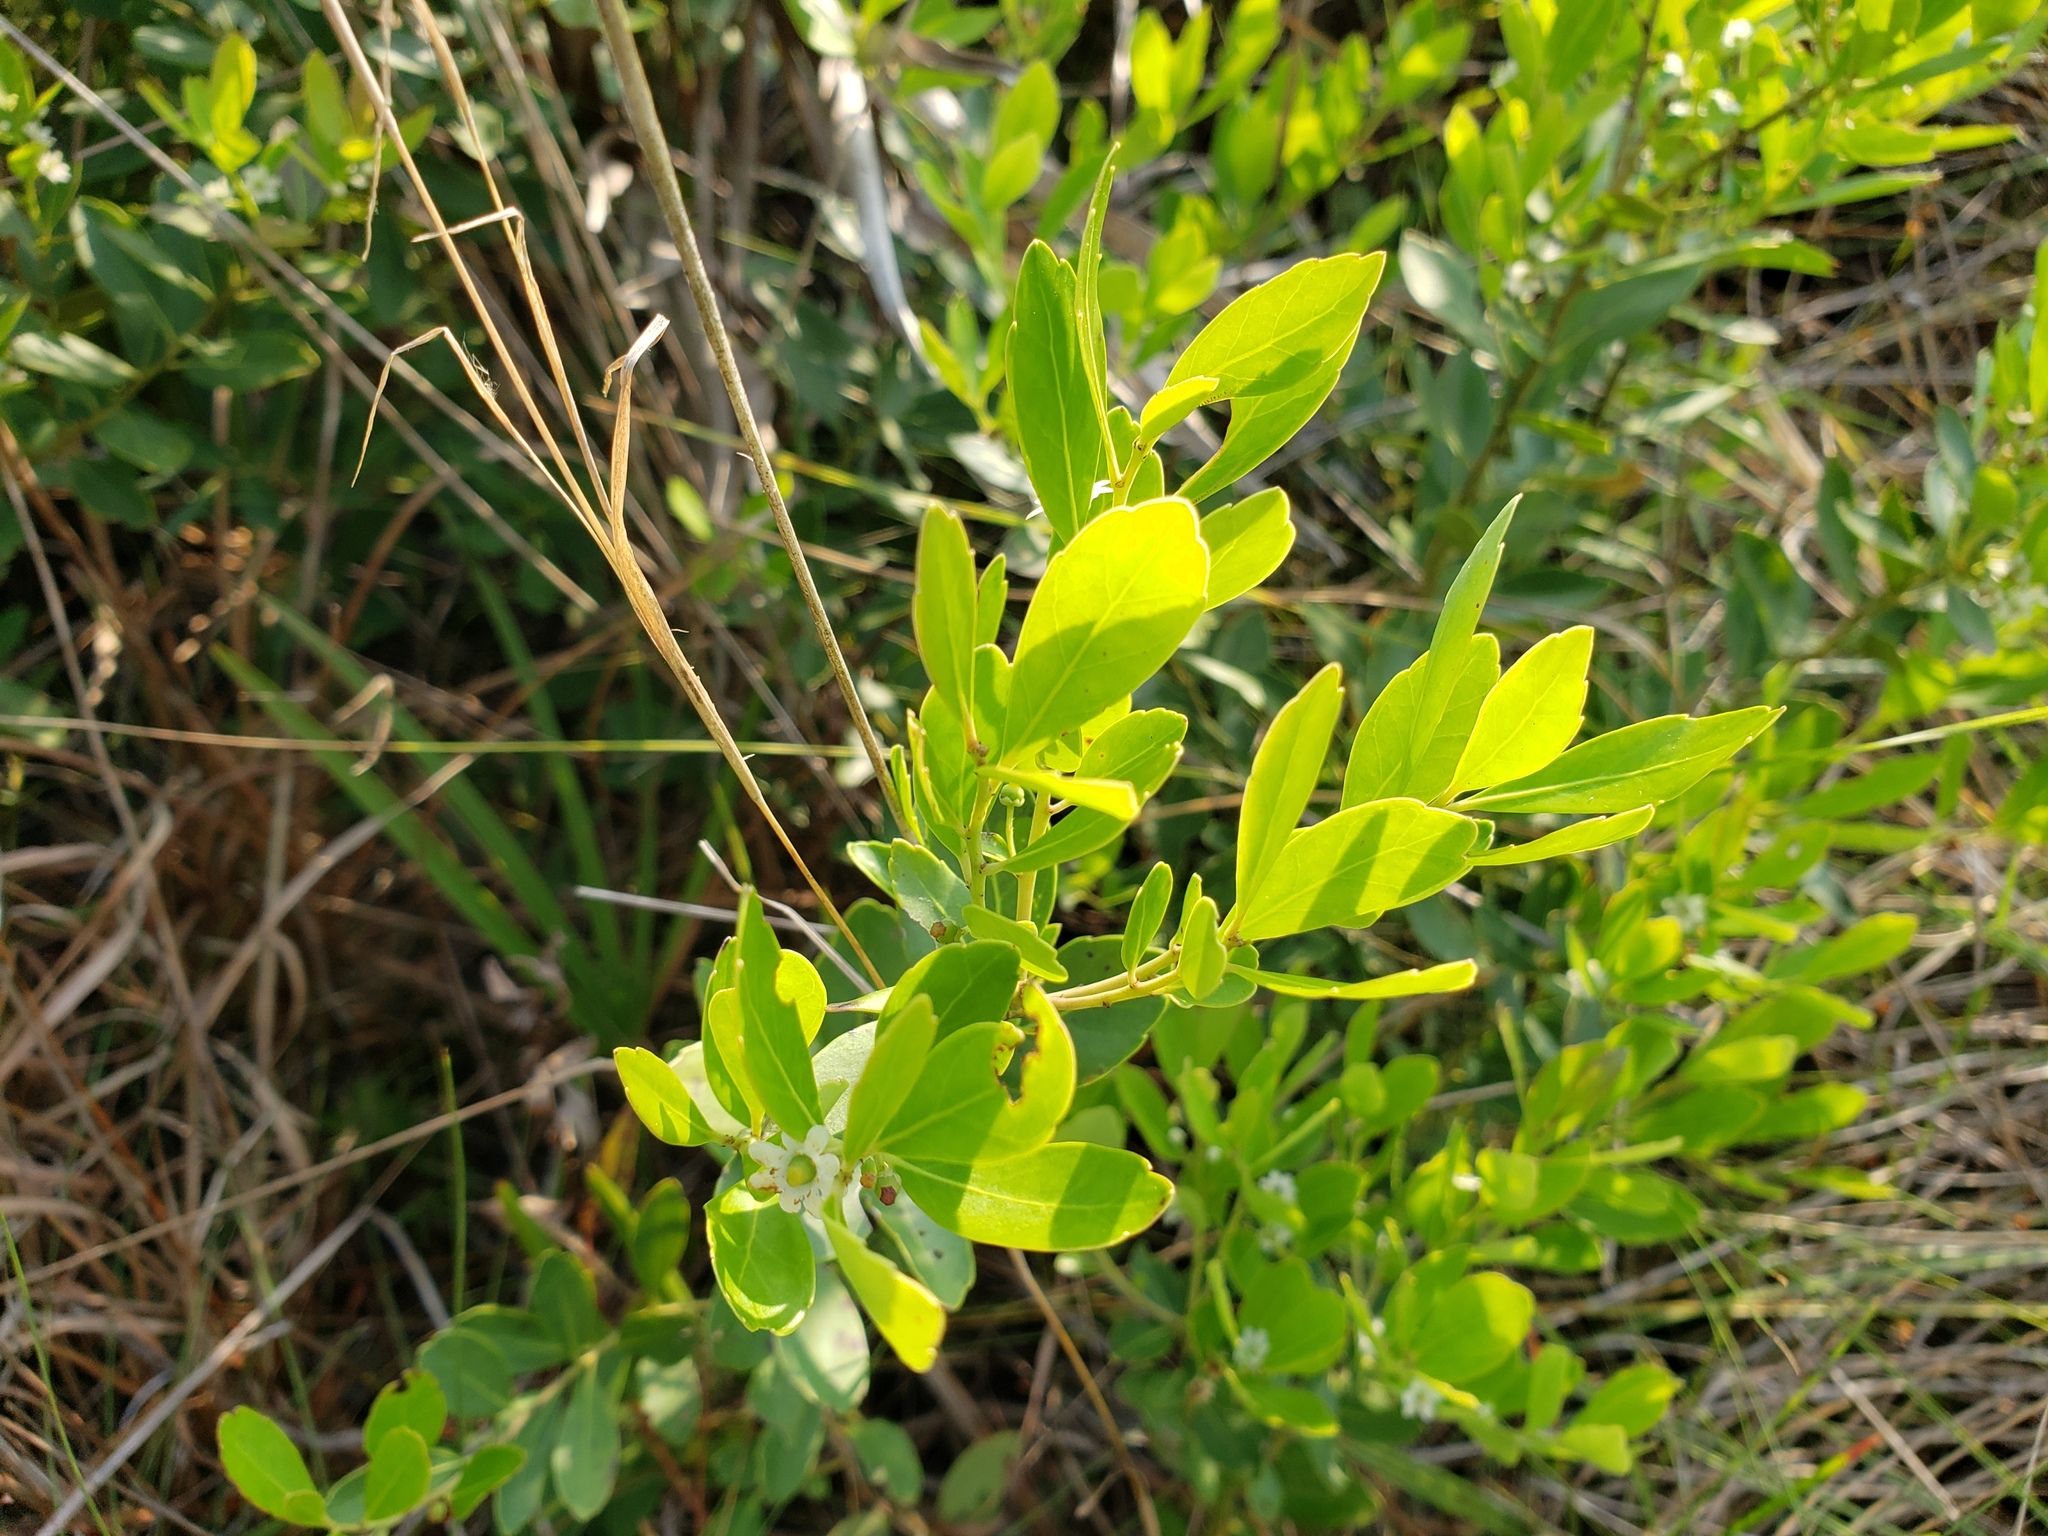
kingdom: Plantae
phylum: Tracheophyta
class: Magnoliopsida
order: Aquifoliales
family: Aquifoliaceae
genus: Ilex
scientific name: Ilex glabra
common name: Bitter gallberry
